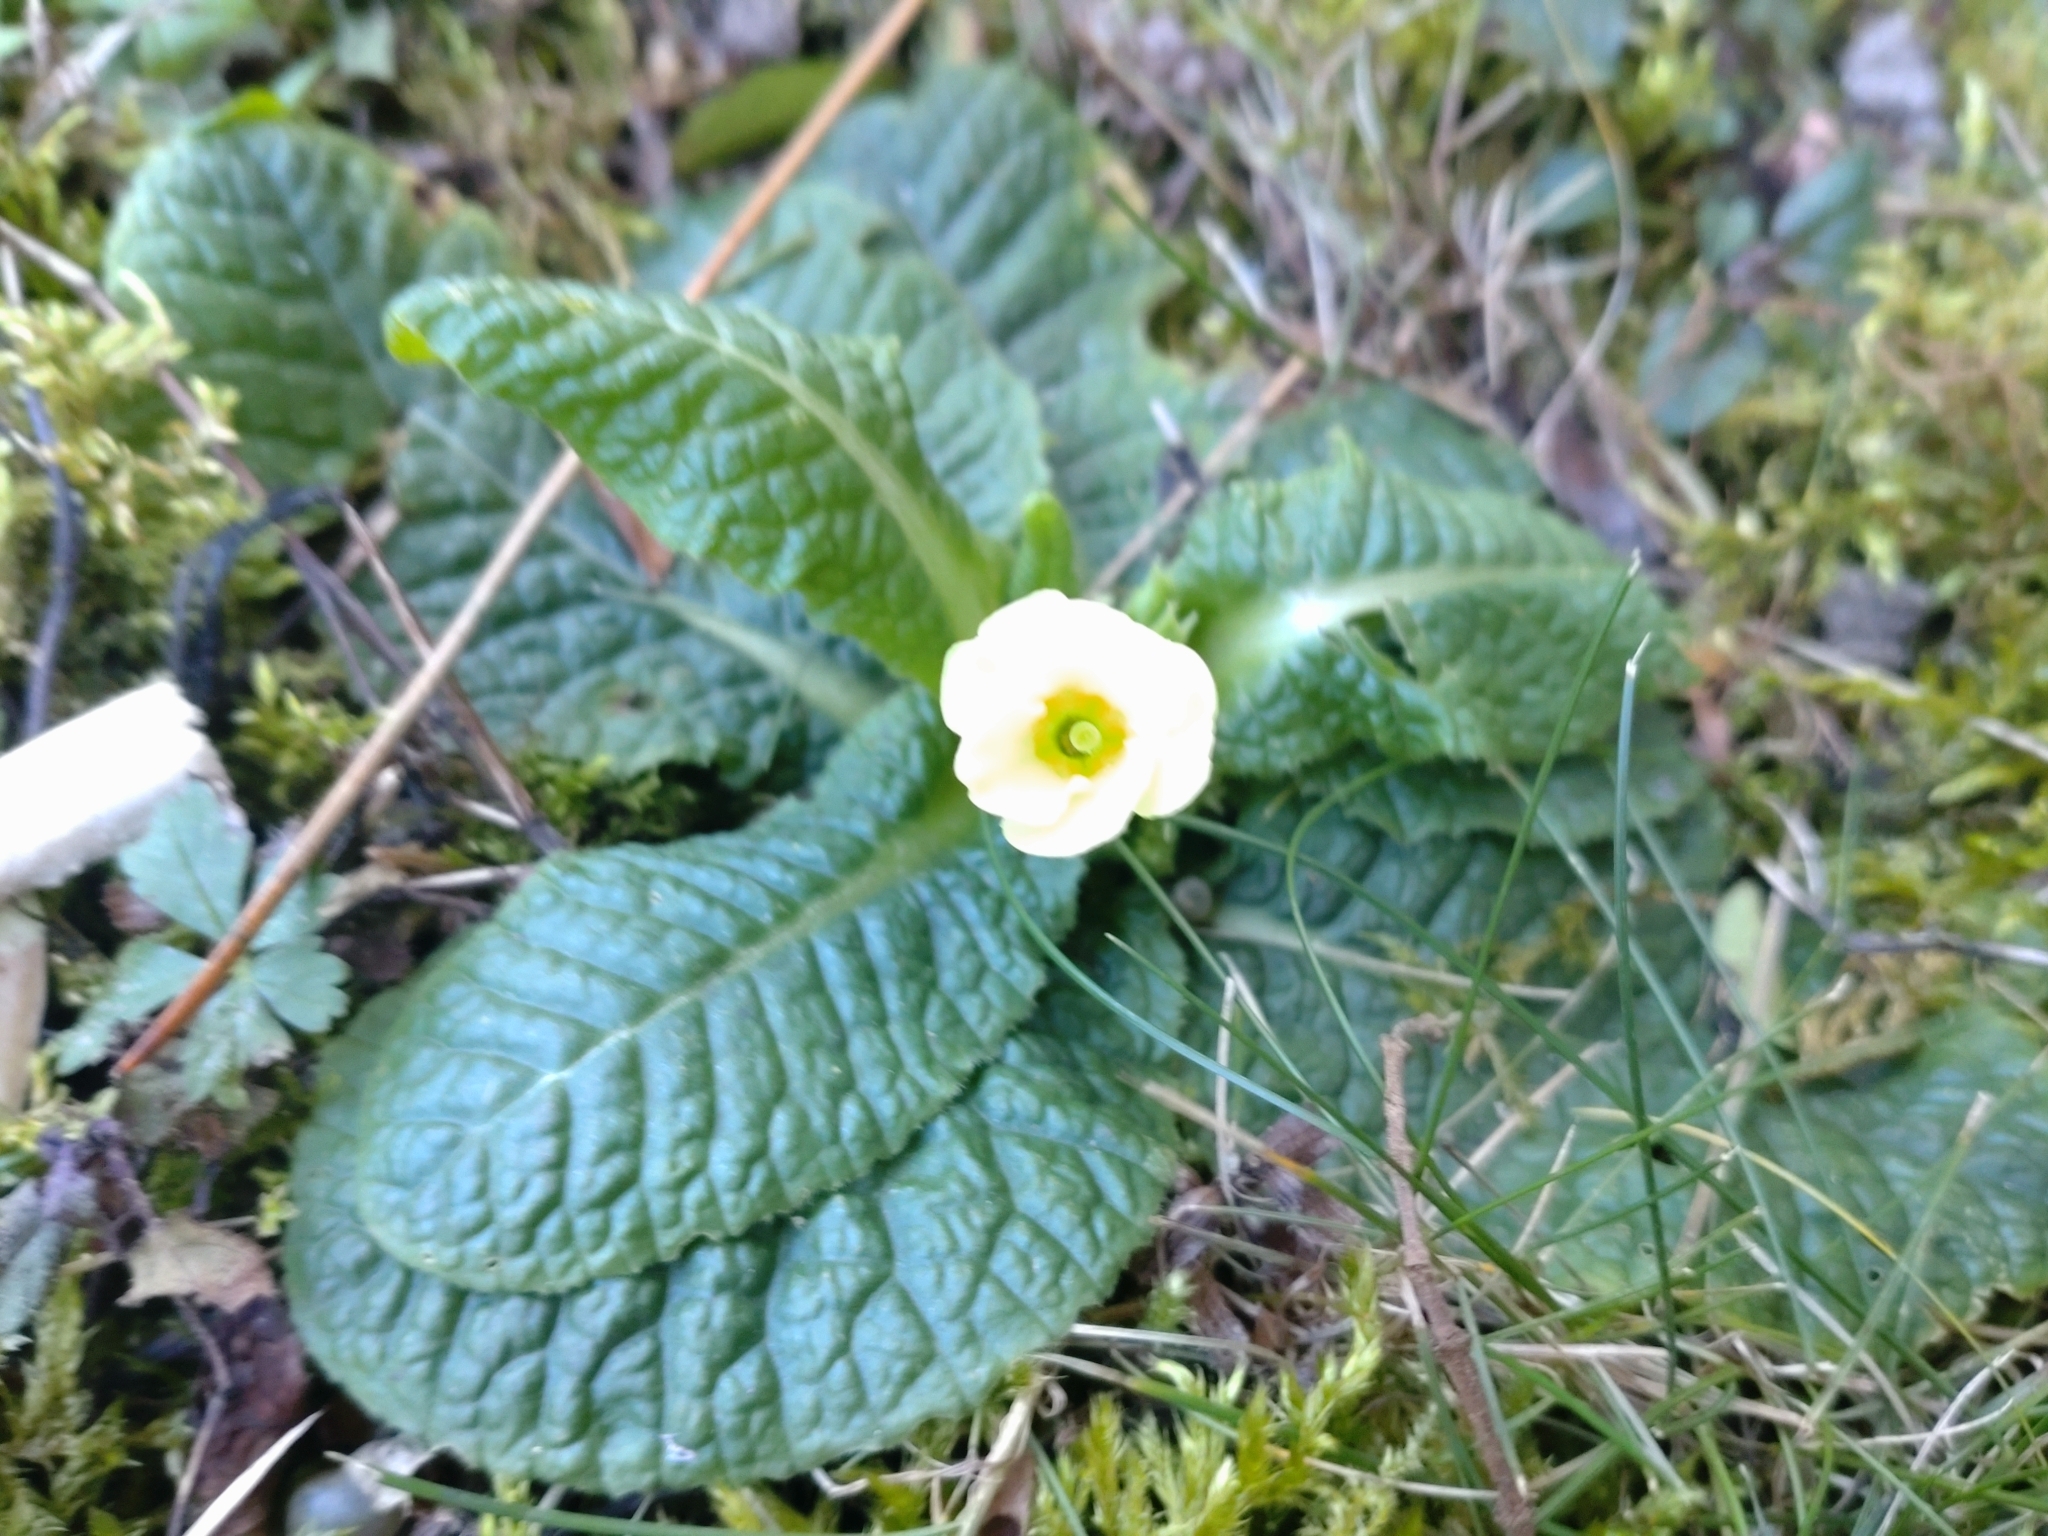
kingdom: Plantae
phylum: Tracheophyta
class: Magnoliopsida
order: Ericales
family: Primulaceae
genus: Primula
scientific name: Primula vulgaris
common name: Primrose
